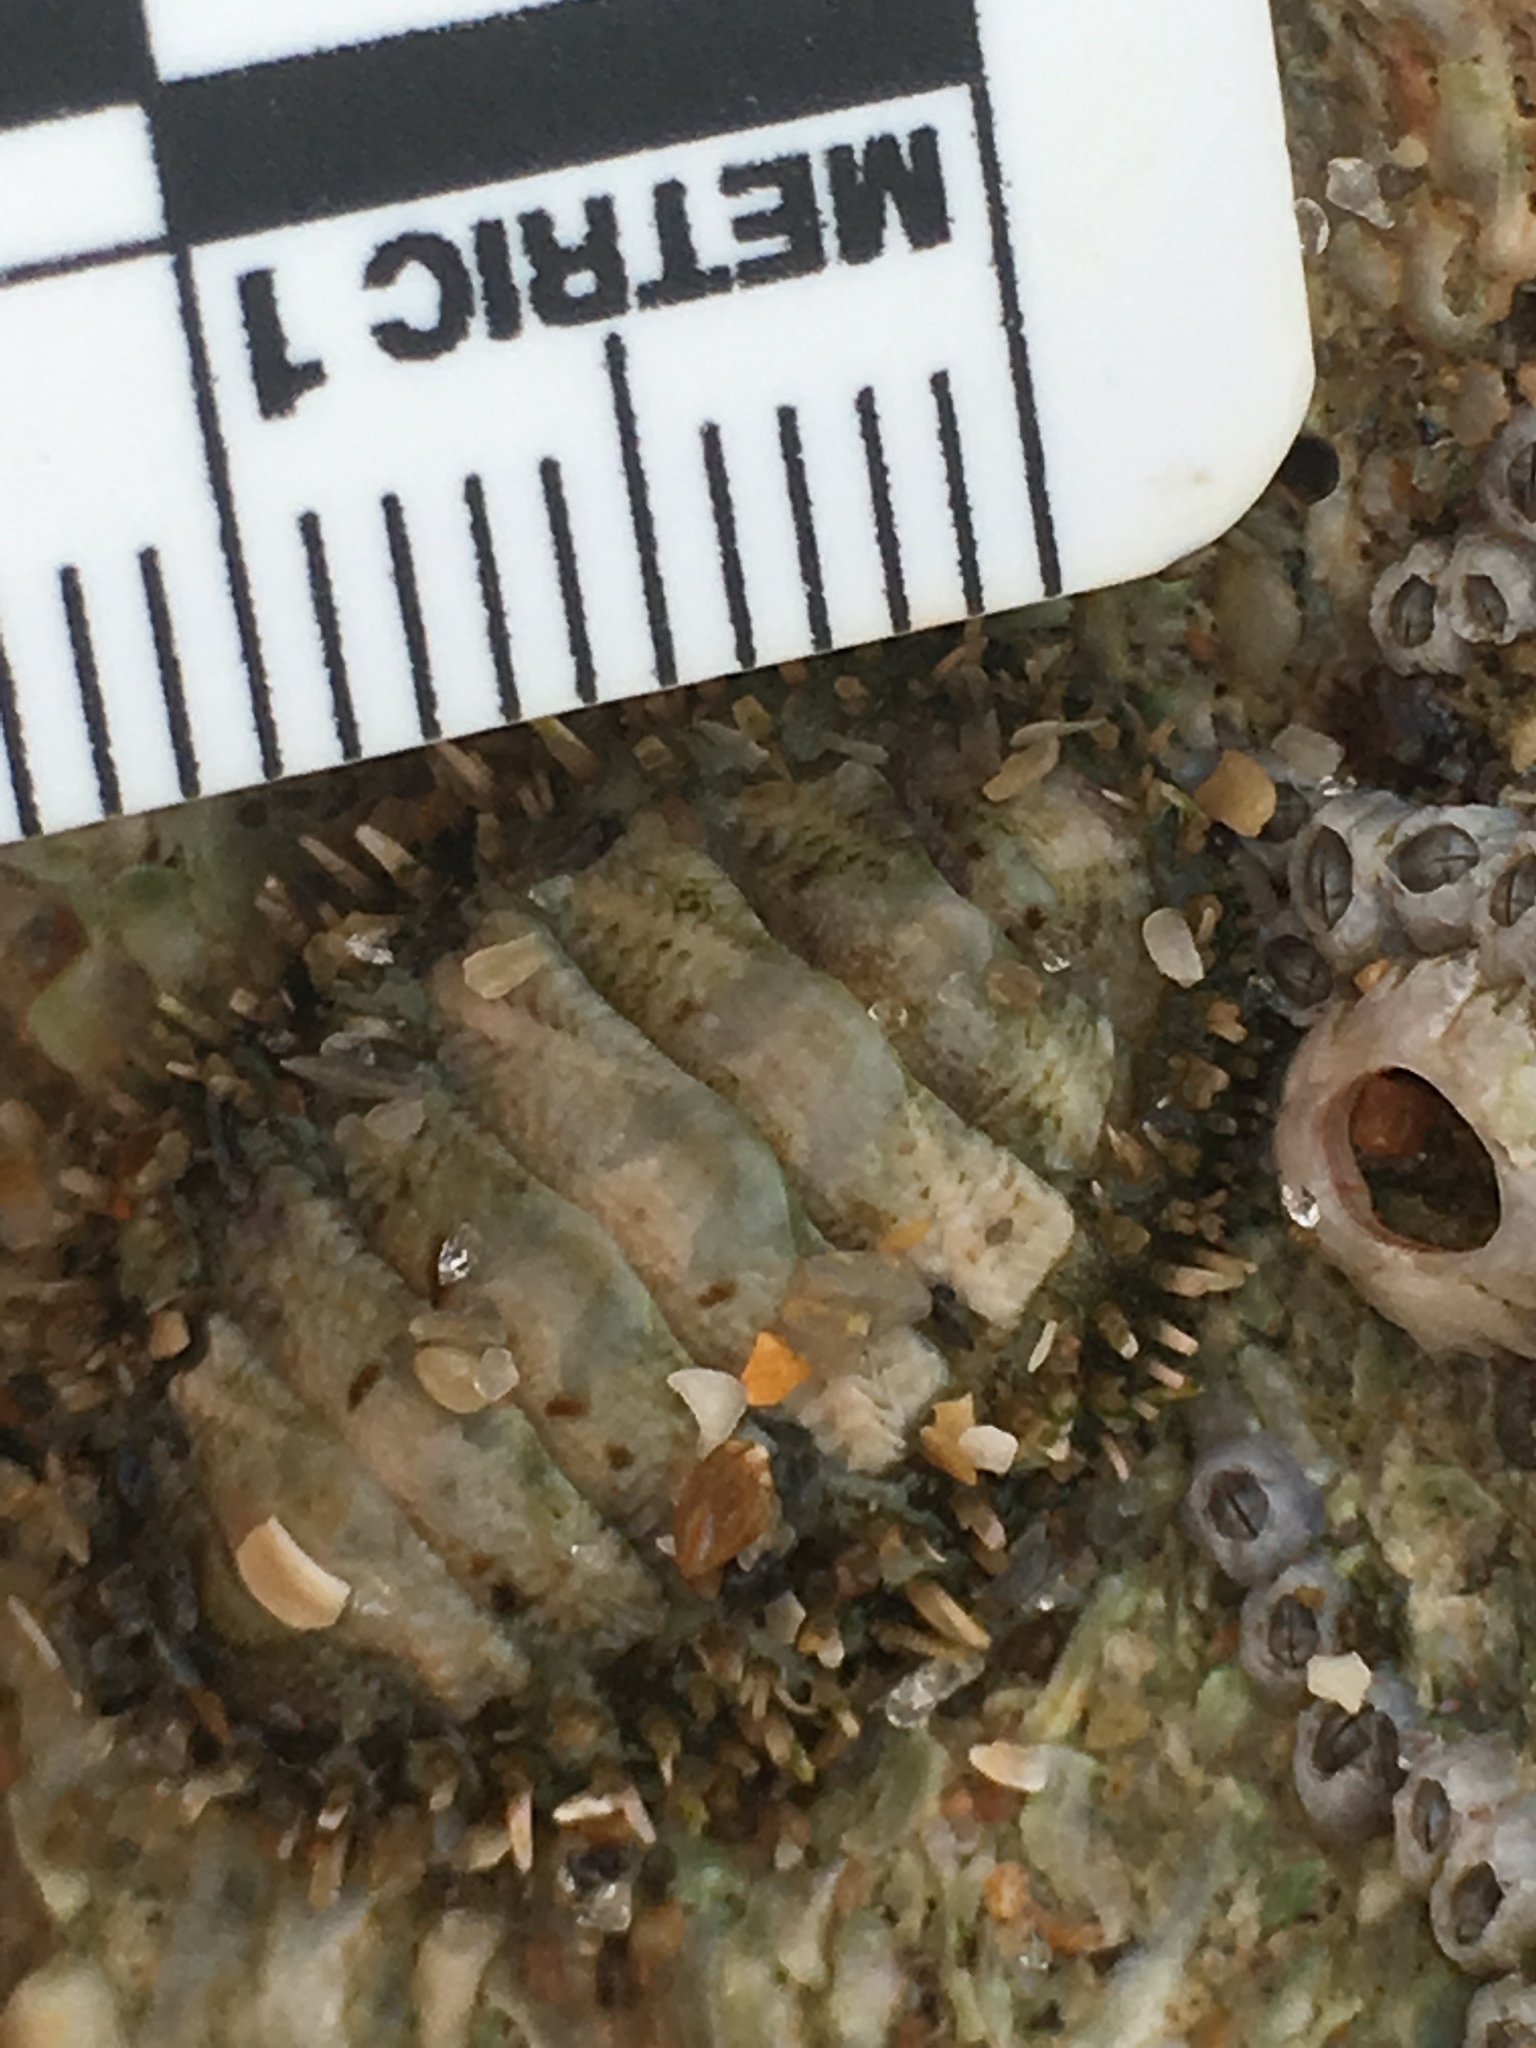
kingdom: Animalia
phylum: Mollusca
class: Polyplacophora
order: Chitonida
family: Tonicellidae
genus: Ceratozona
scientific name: Ceratozona squalida
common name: Rough-girdled chiton
